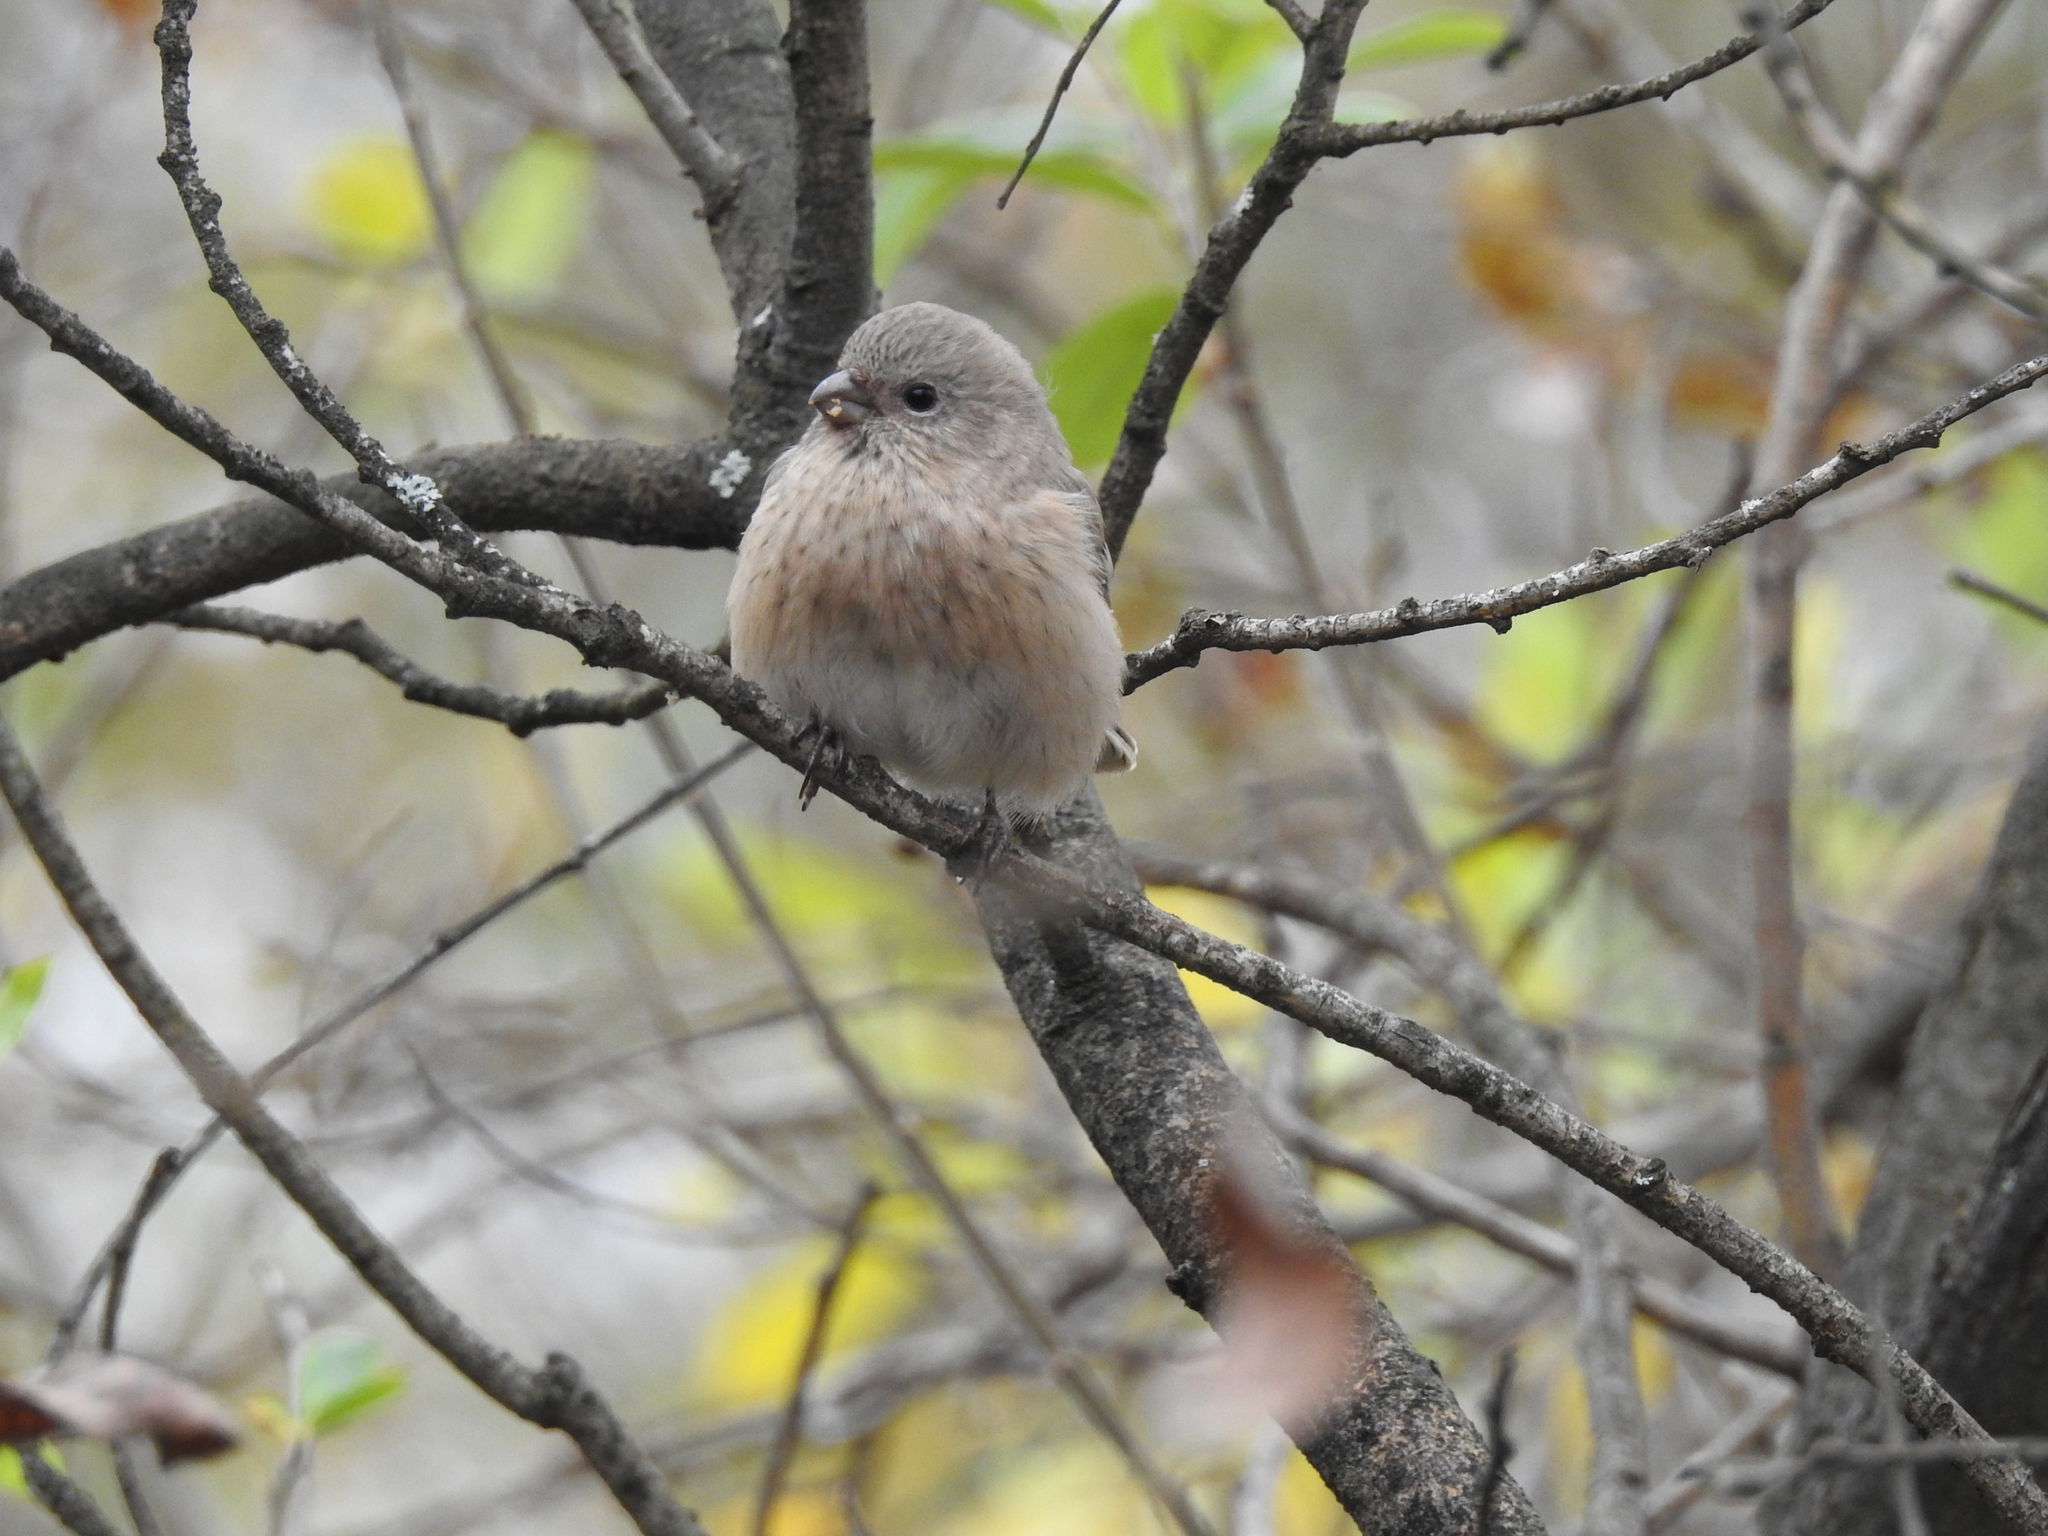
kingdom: Animalia
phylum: Chordata
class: Aves
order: Passeriformes
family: Fringillidae
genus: Carpodacus
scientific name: Carpodacus sibiricus
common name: Long-tailed rosefinch
